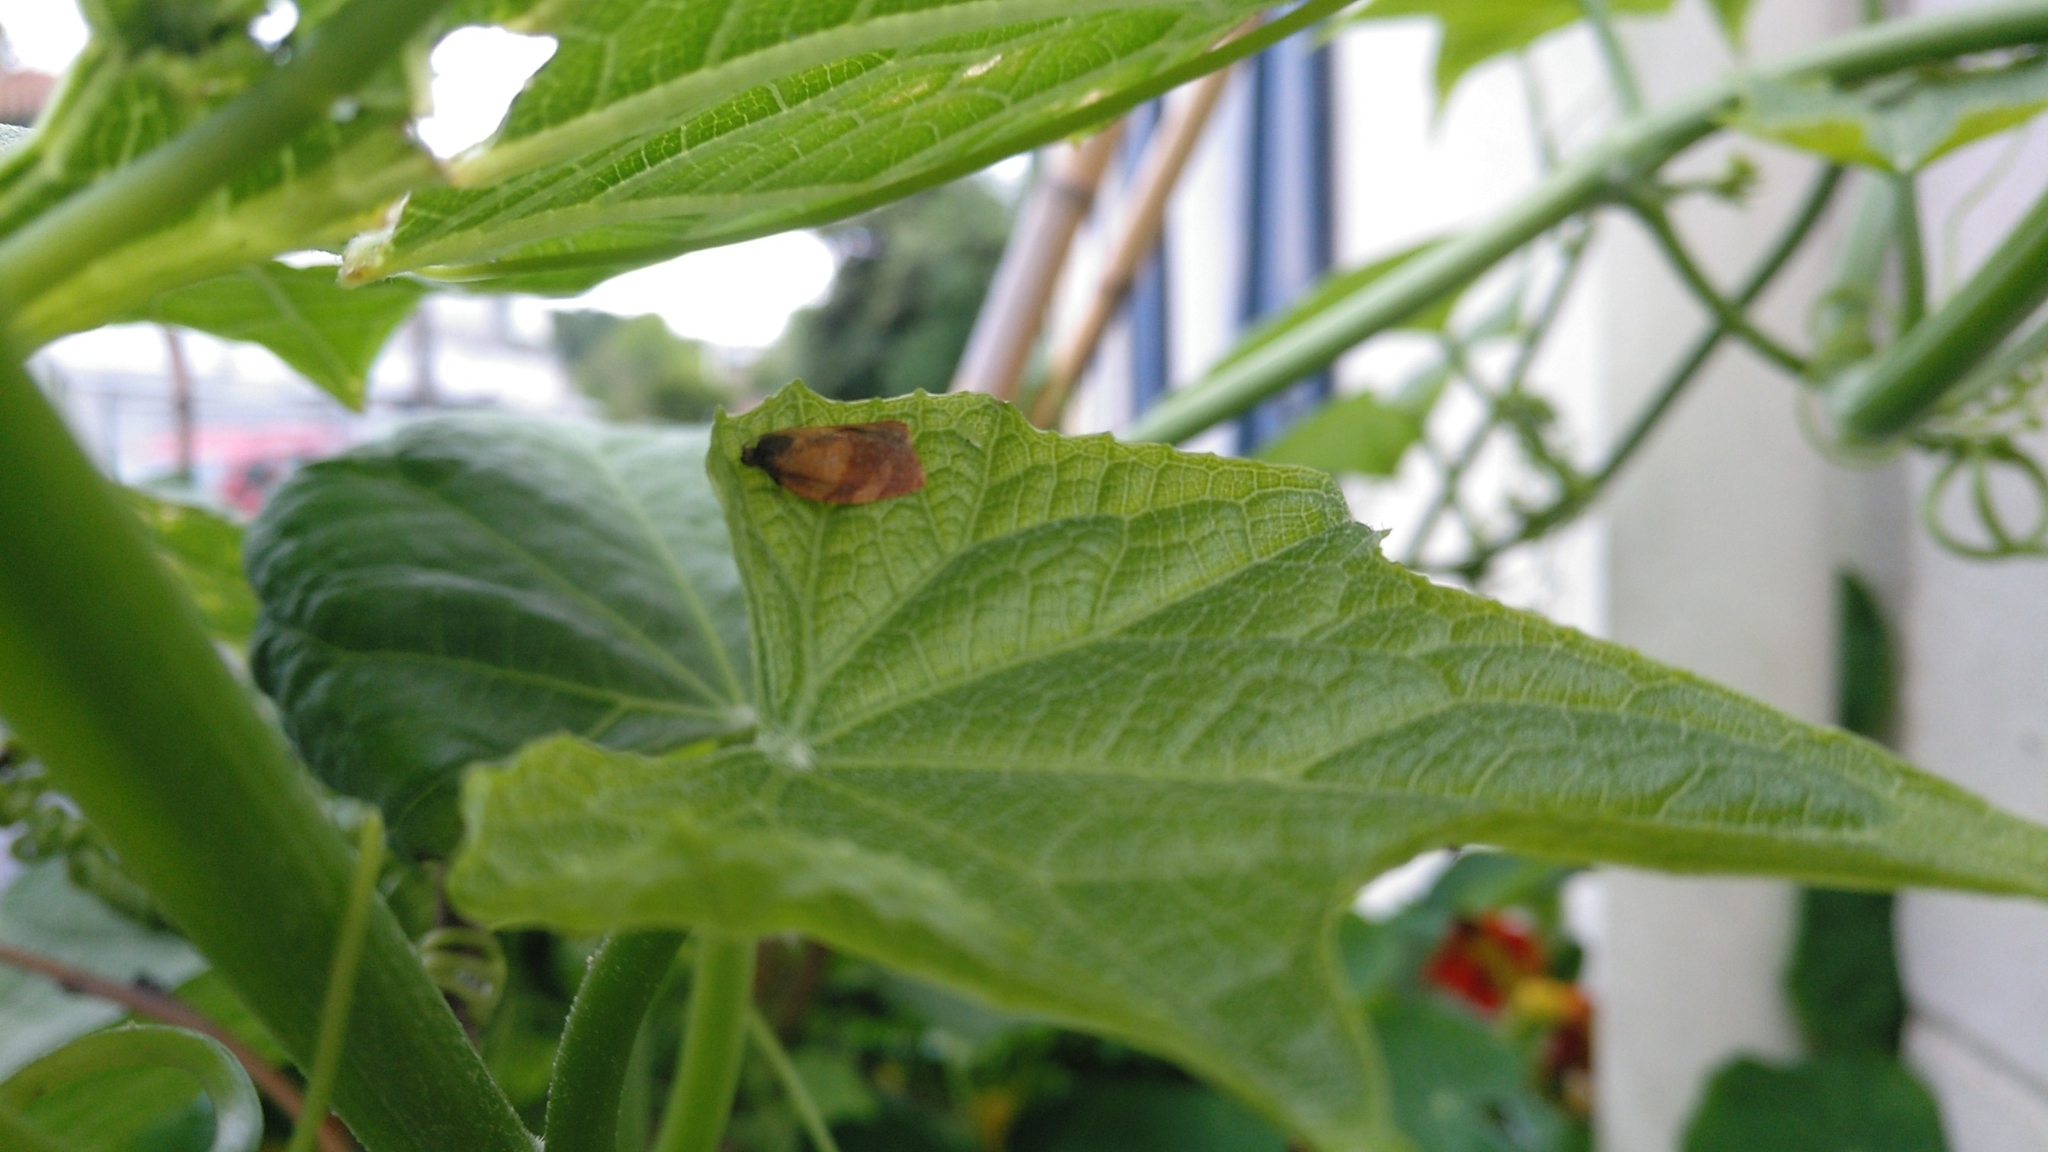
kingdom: Animalia
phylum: Arthropoda
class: Insecta
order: Lepidoptera
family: Tortricidae
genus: Cacoecimorpha
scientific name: Cacoecimorpha pronubana
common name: Carnation tortrix
